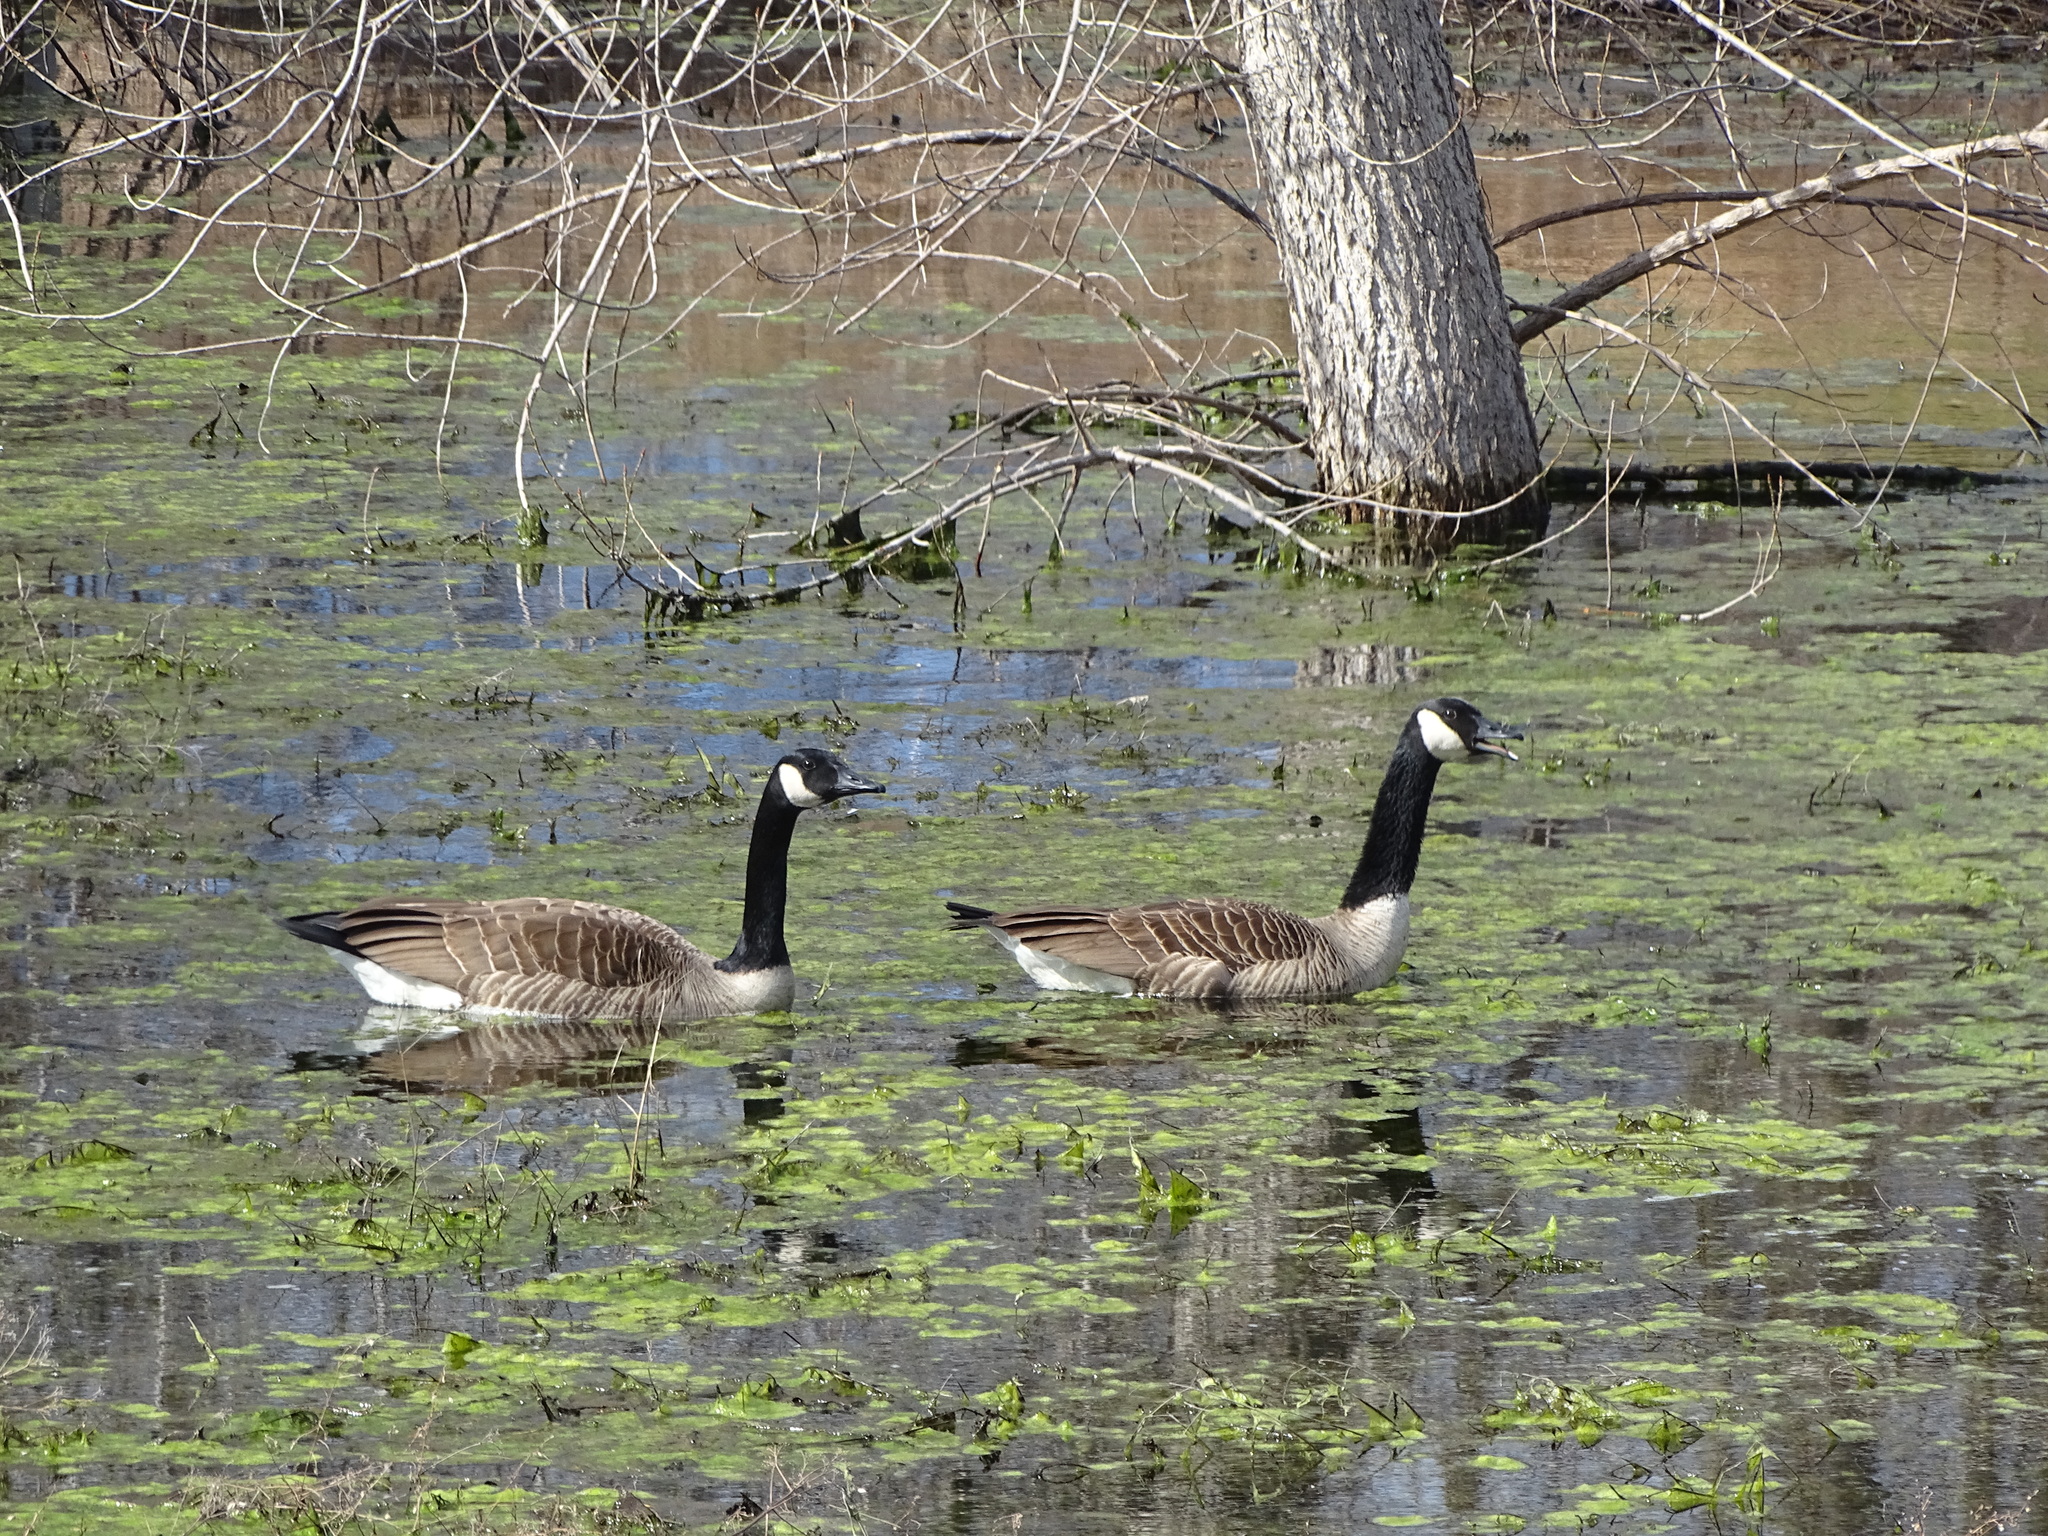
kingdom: Animalia
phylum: Chordata
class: Aves
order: Anseriformes
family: Anatidae
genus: Branta
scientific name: Branta canadensis
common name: Canada goose
